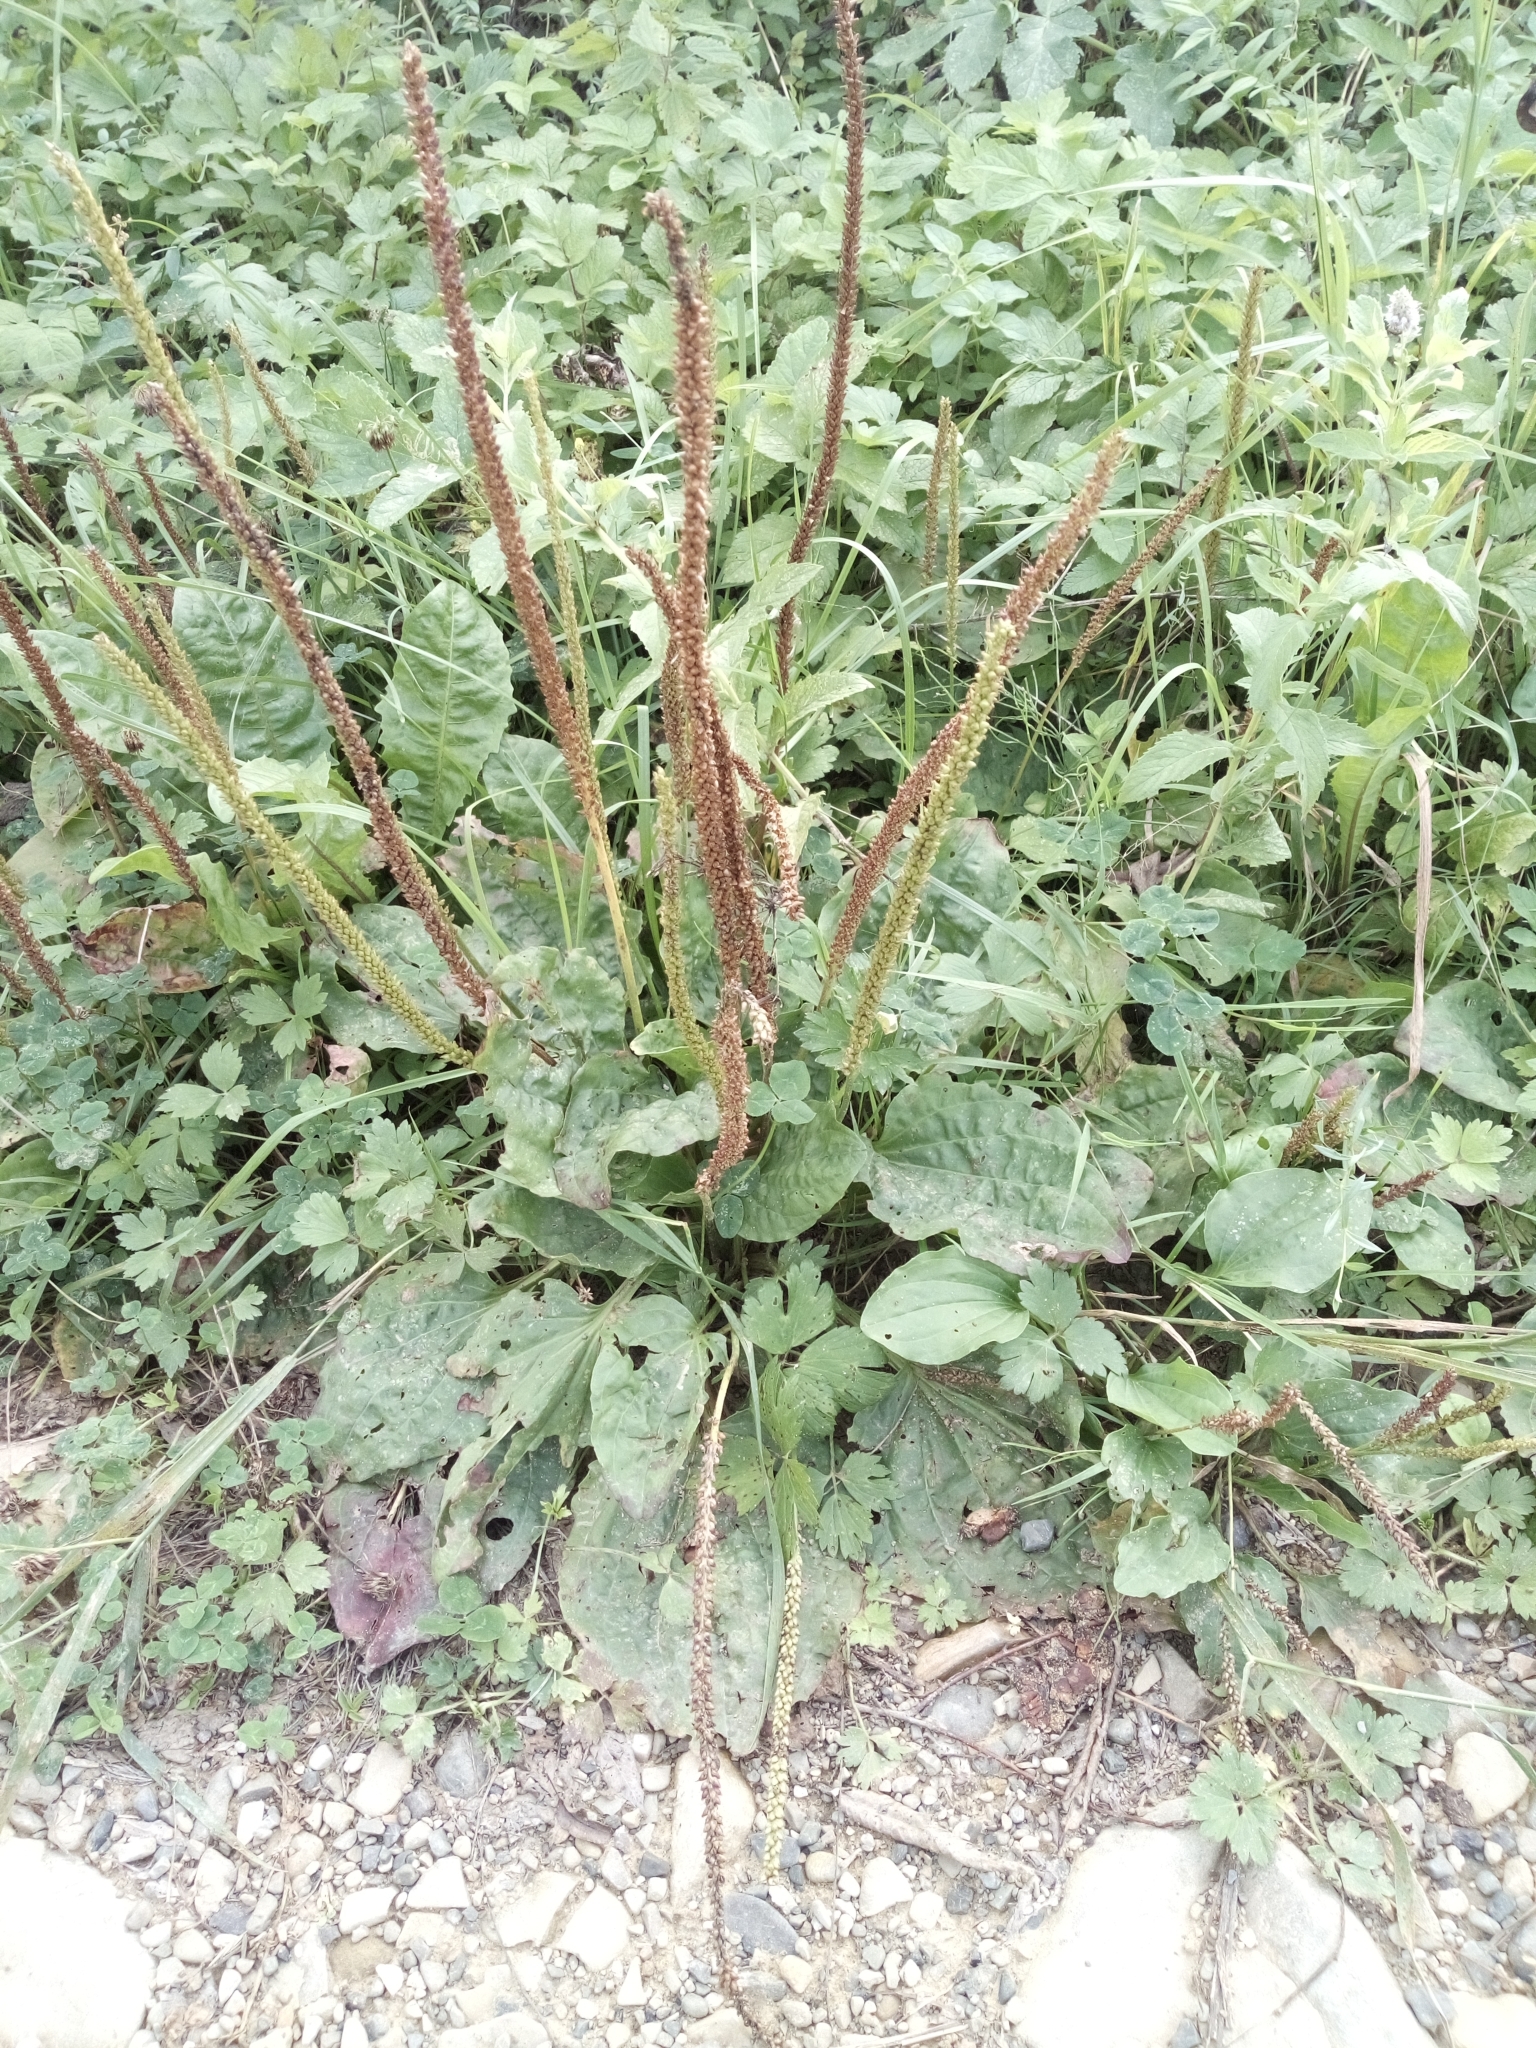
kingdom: Plantae
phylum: Tracheophyta
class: Magnoliopsida
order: Lamiales
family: Plantaginaceae
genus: Plantago
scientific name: Plantago major
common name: Common plantain
